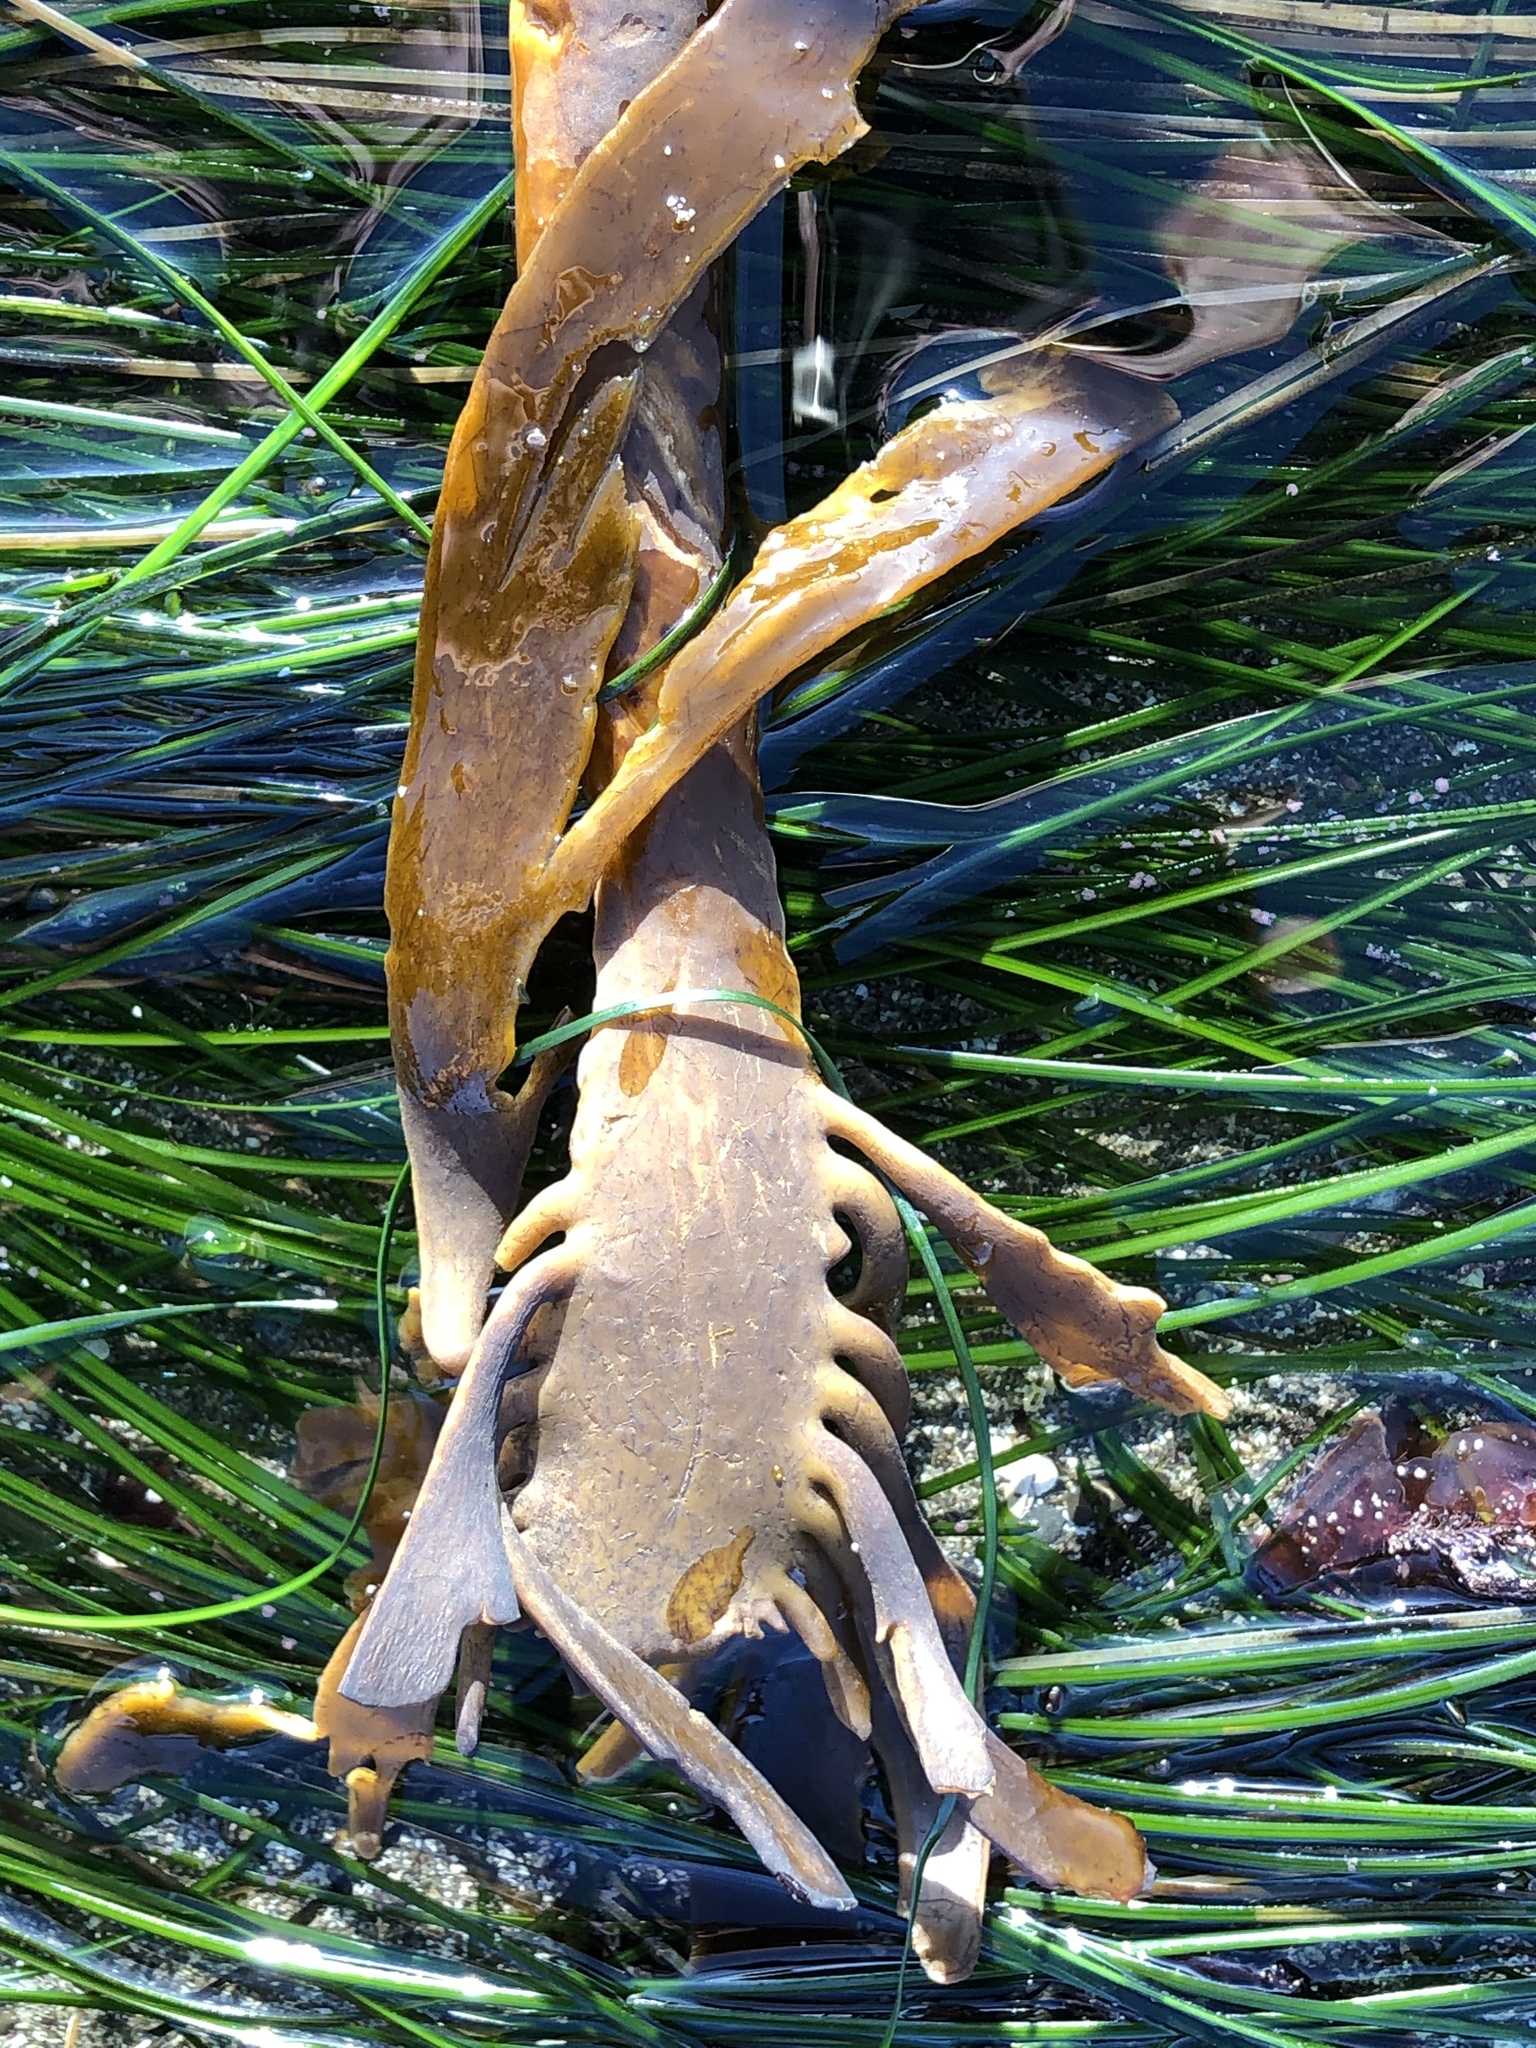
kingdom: Chromista
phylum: Ochrophyta
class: Phaeophyceae
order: Laminariales
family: Alariaceae
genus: Pterygophora
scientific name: Pterygophora californica
